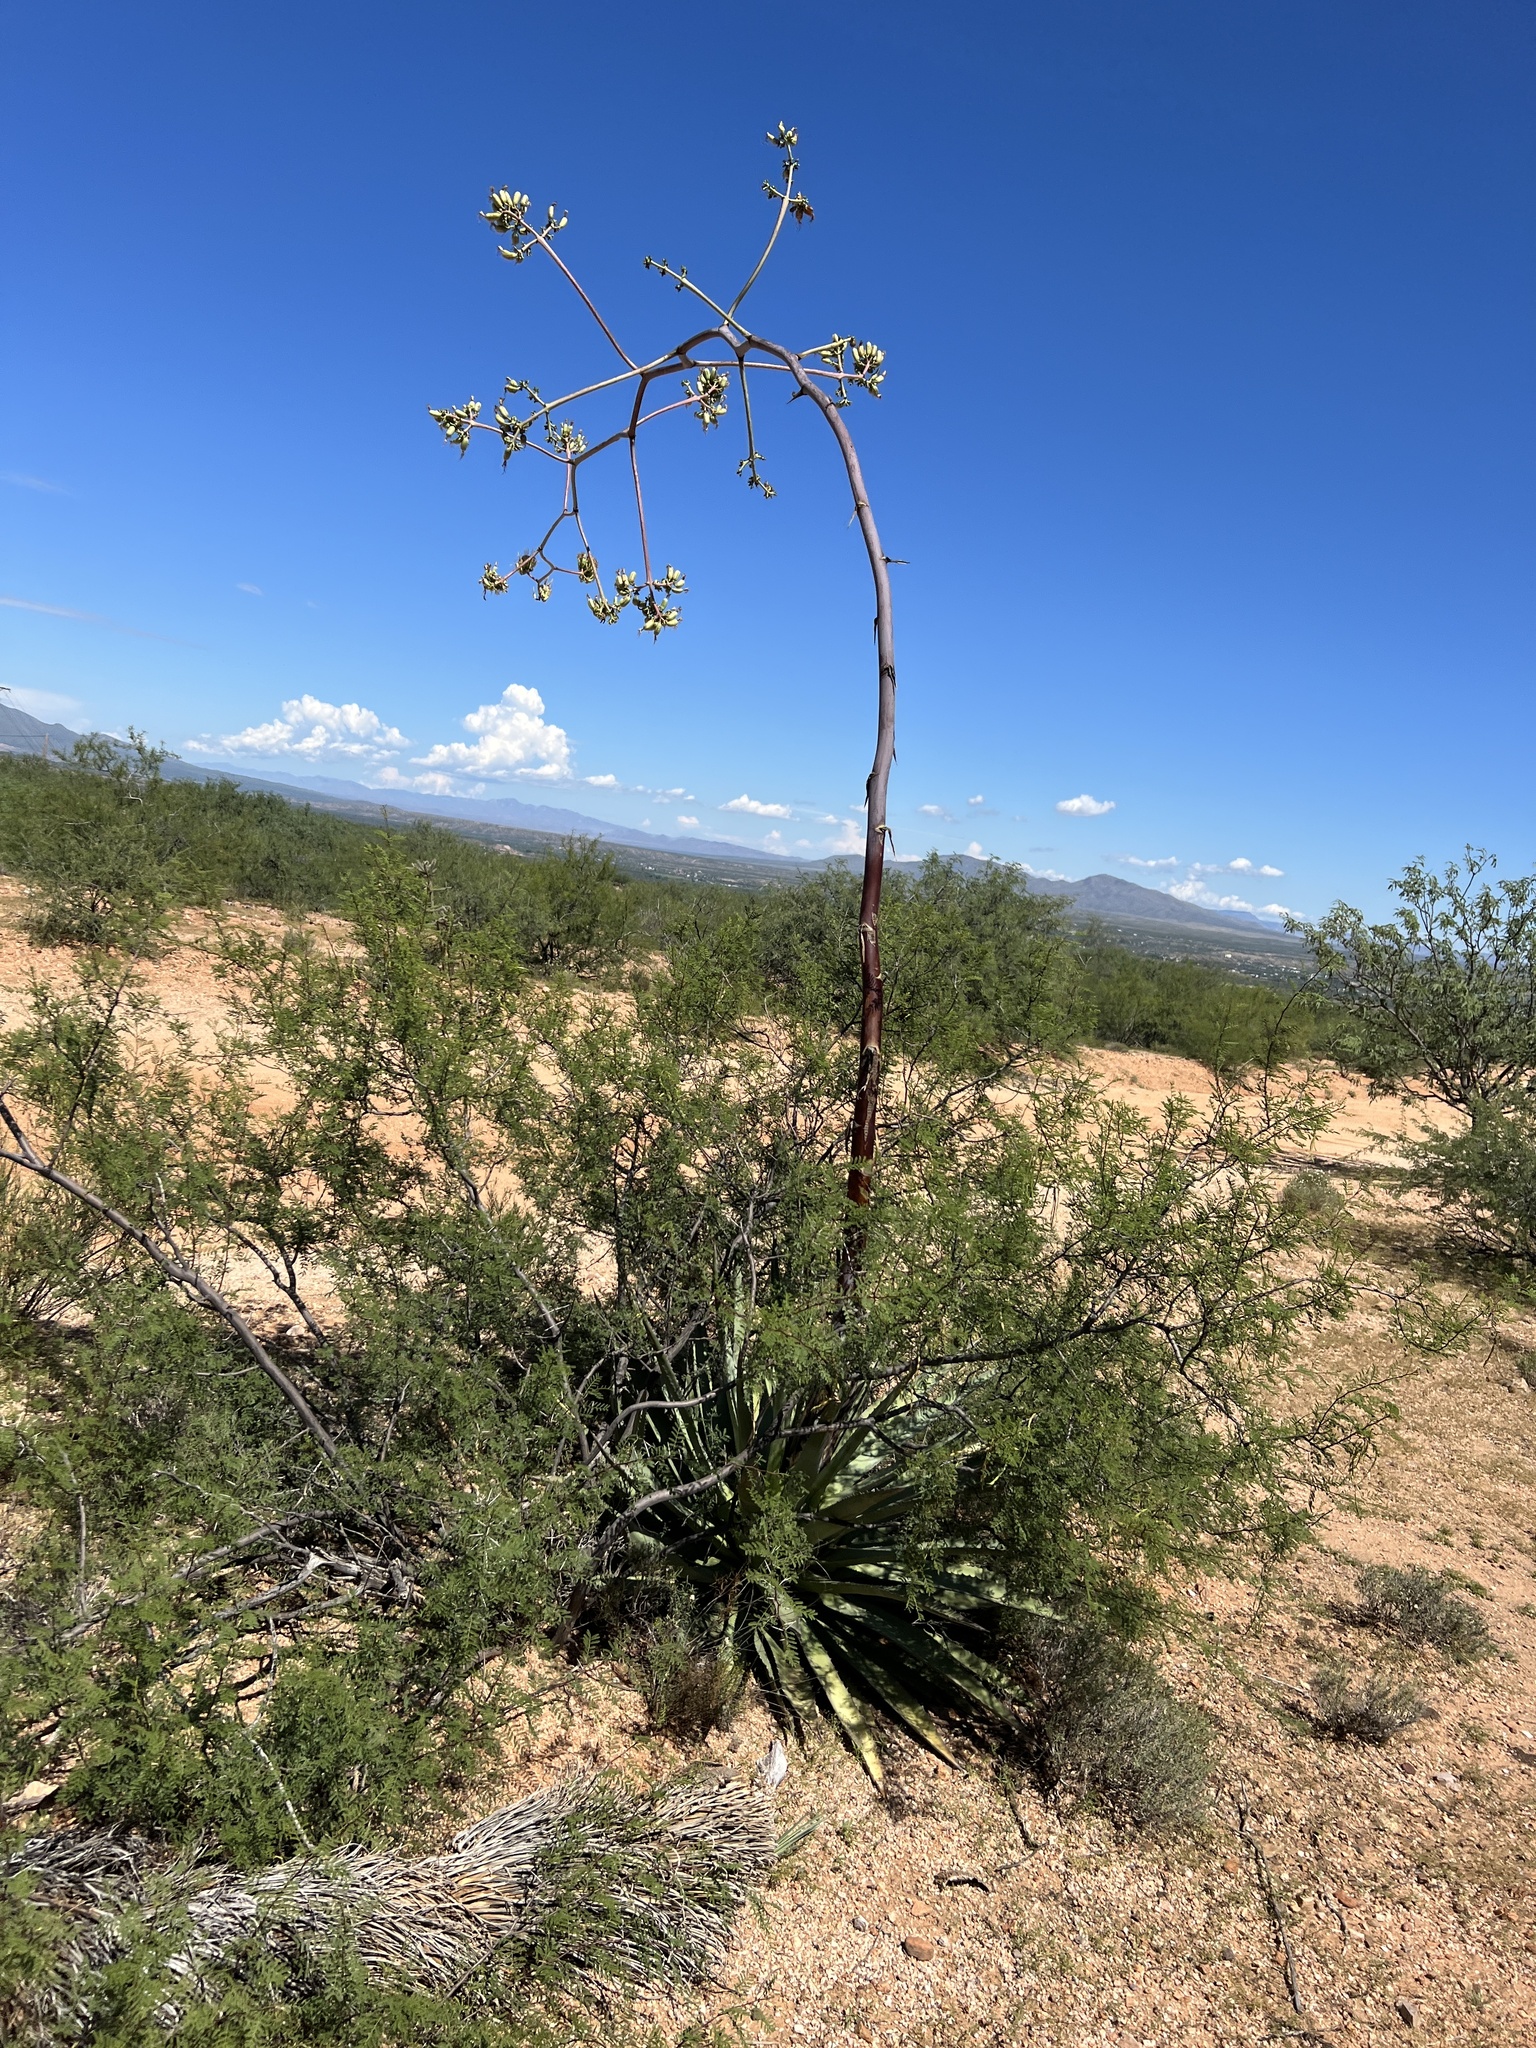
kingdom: Plantae
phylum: Tracheophyta
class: Liliopsida
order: Asparagales
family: Asparagaceae
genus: Agave
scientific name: Agave palmeri
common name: Palmer agave
